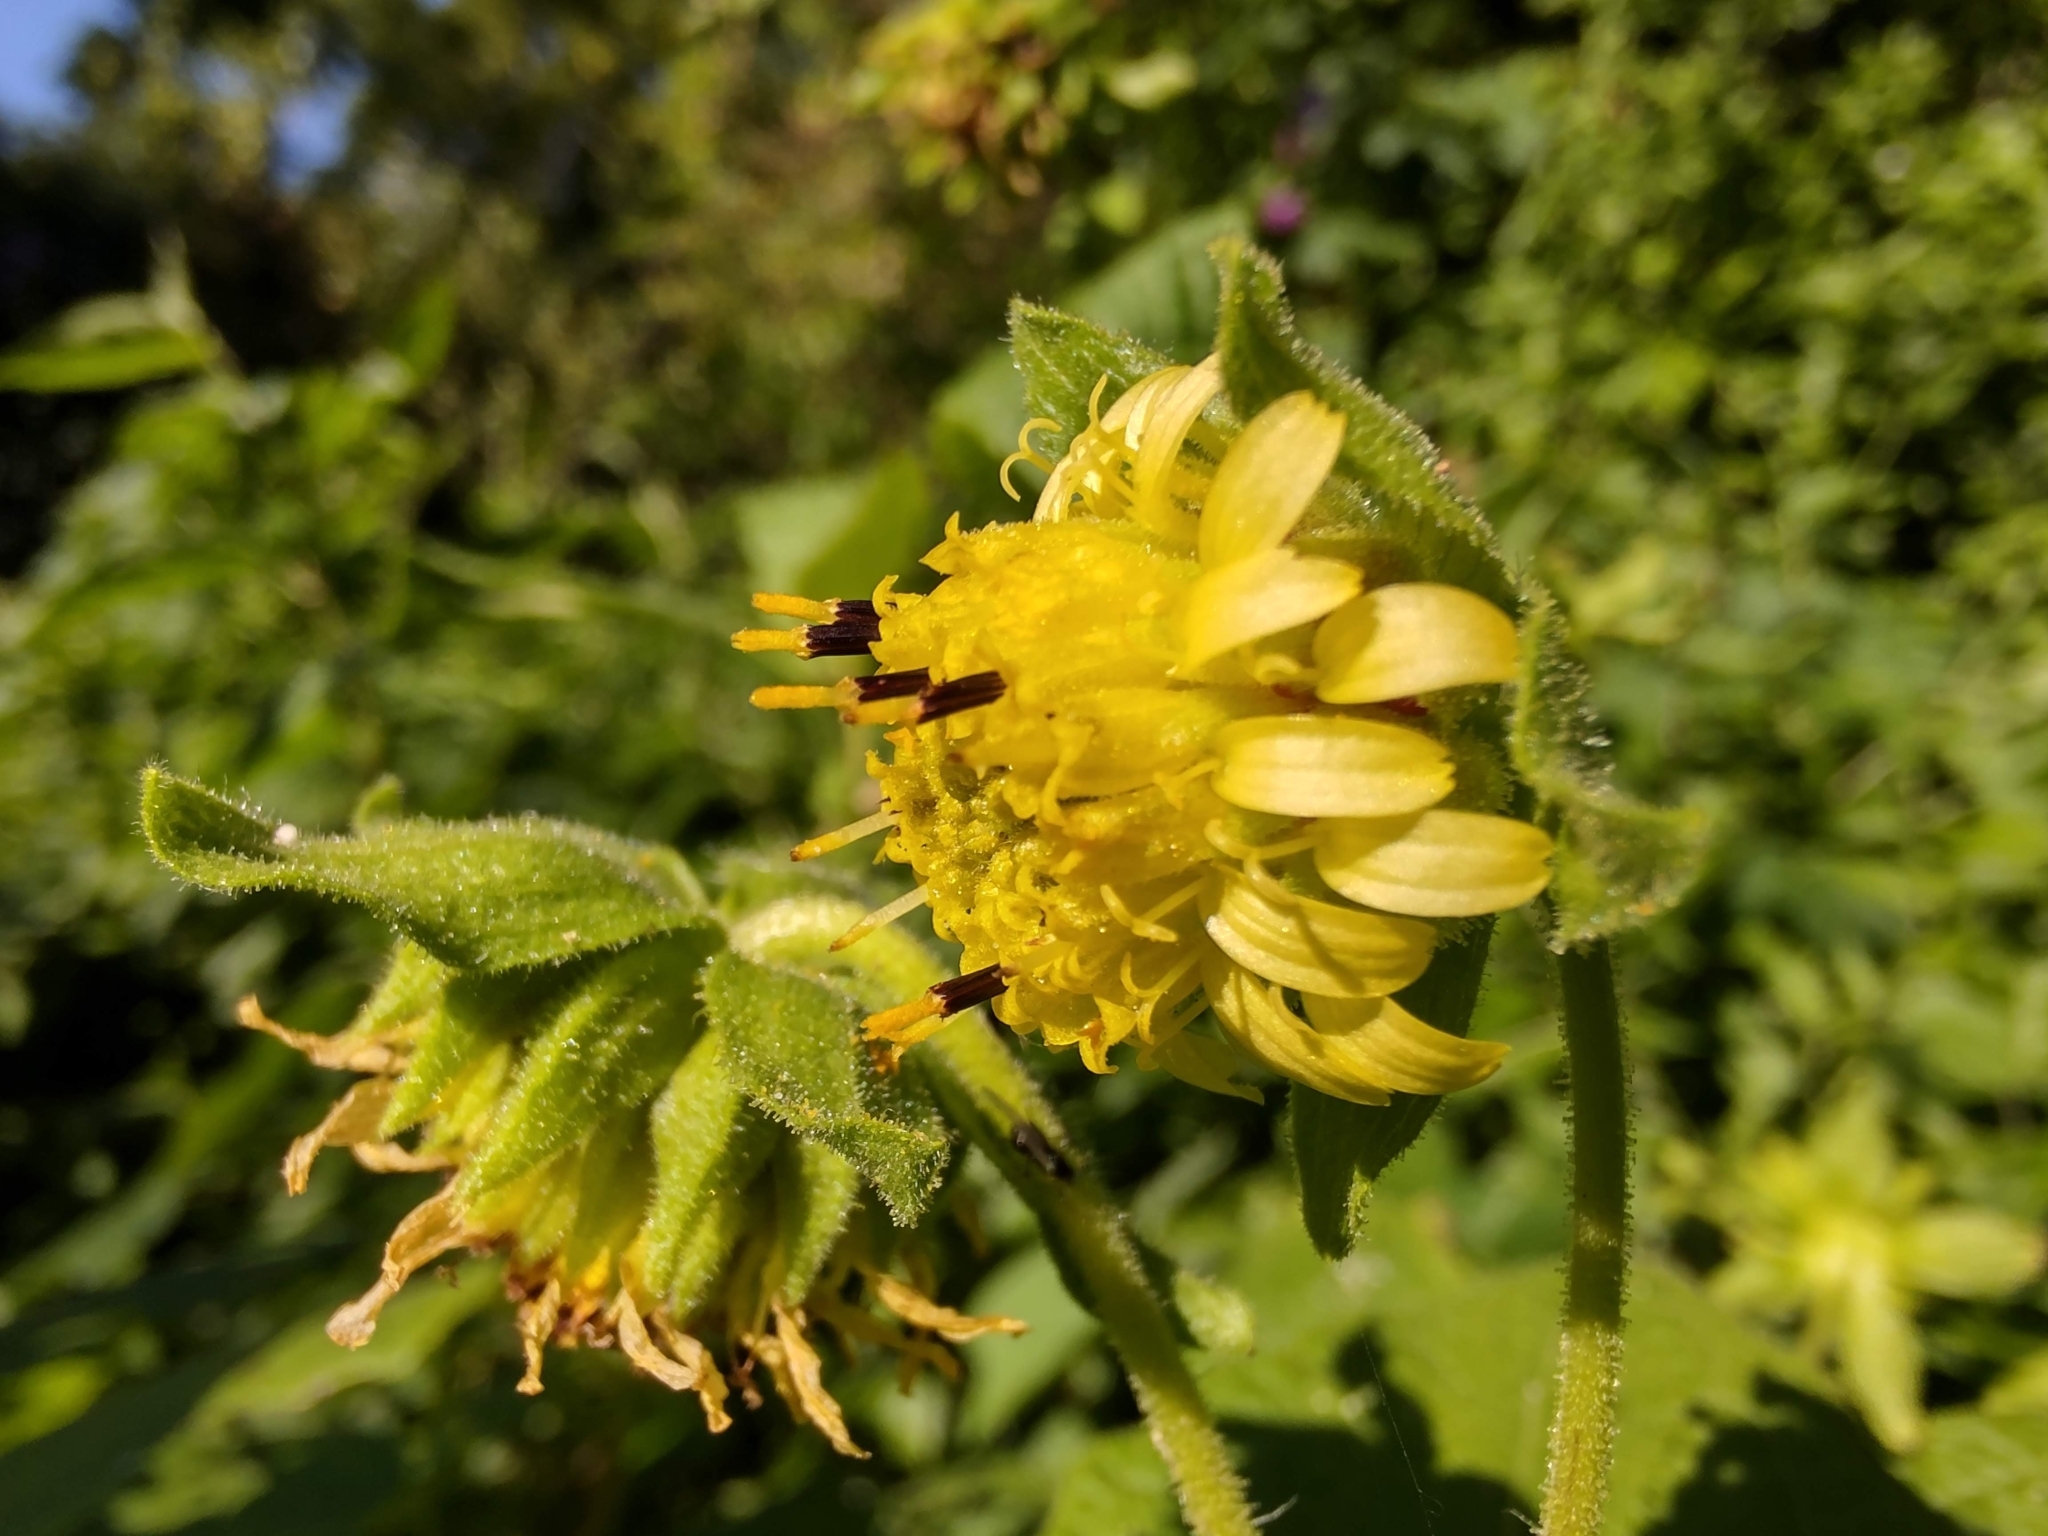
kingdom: Plantae
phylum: Tracheophyta
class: Magnoliopsida
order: Asterales
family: Asteraceae
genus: Smallanthus
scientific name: Smallanthus connatus
